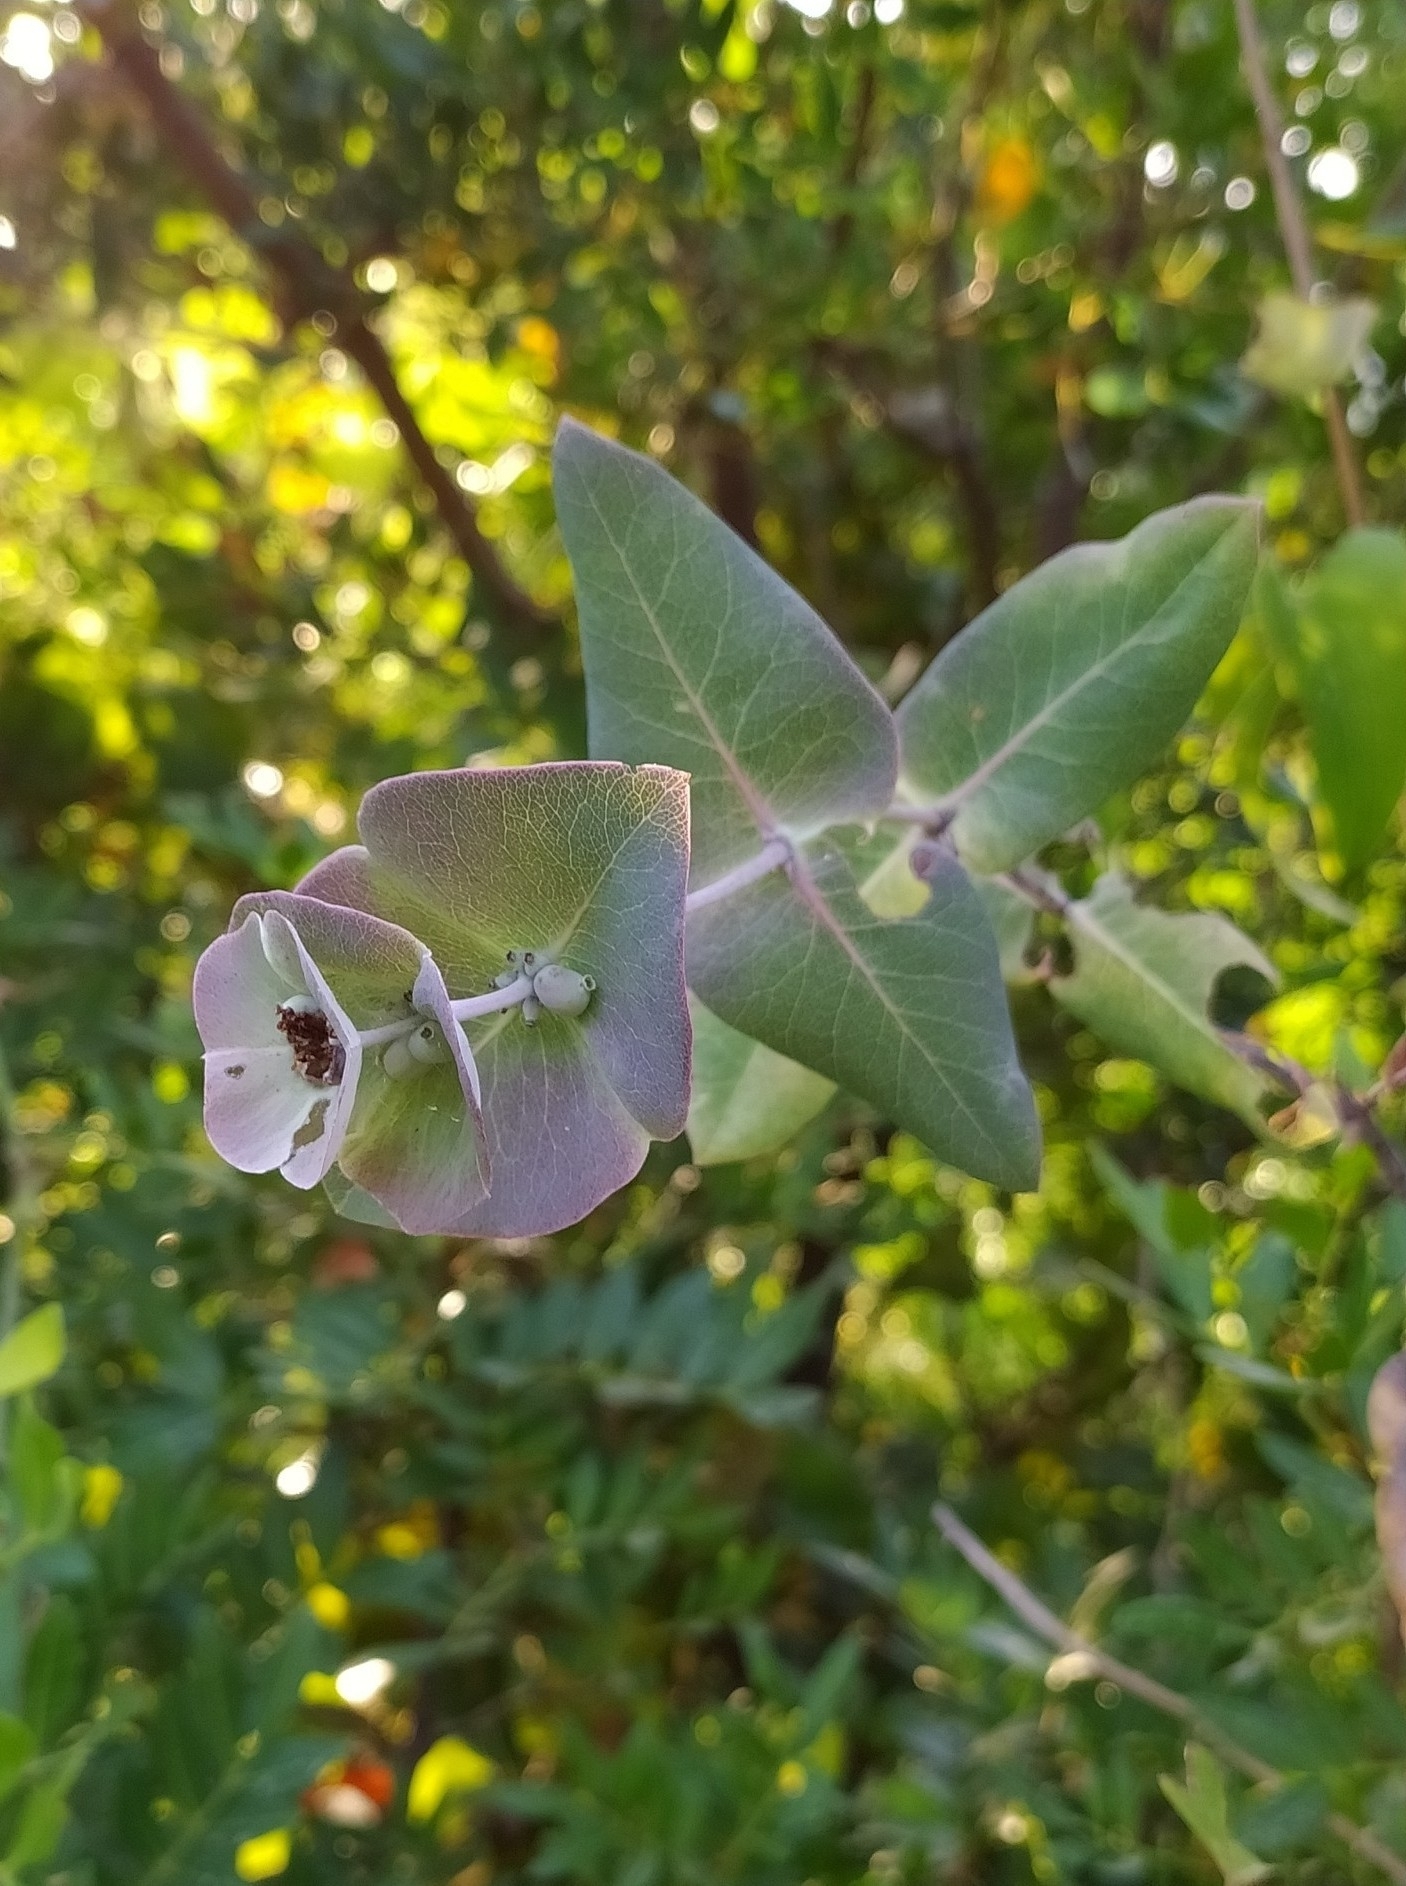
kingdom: Plantae
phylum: Tracheophyta
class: Magnoliopsida
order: Dipsacales
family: Caprifoliaceae
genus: Lonicera
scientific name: Lonicera implexa
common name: Minorca honeysuckle
